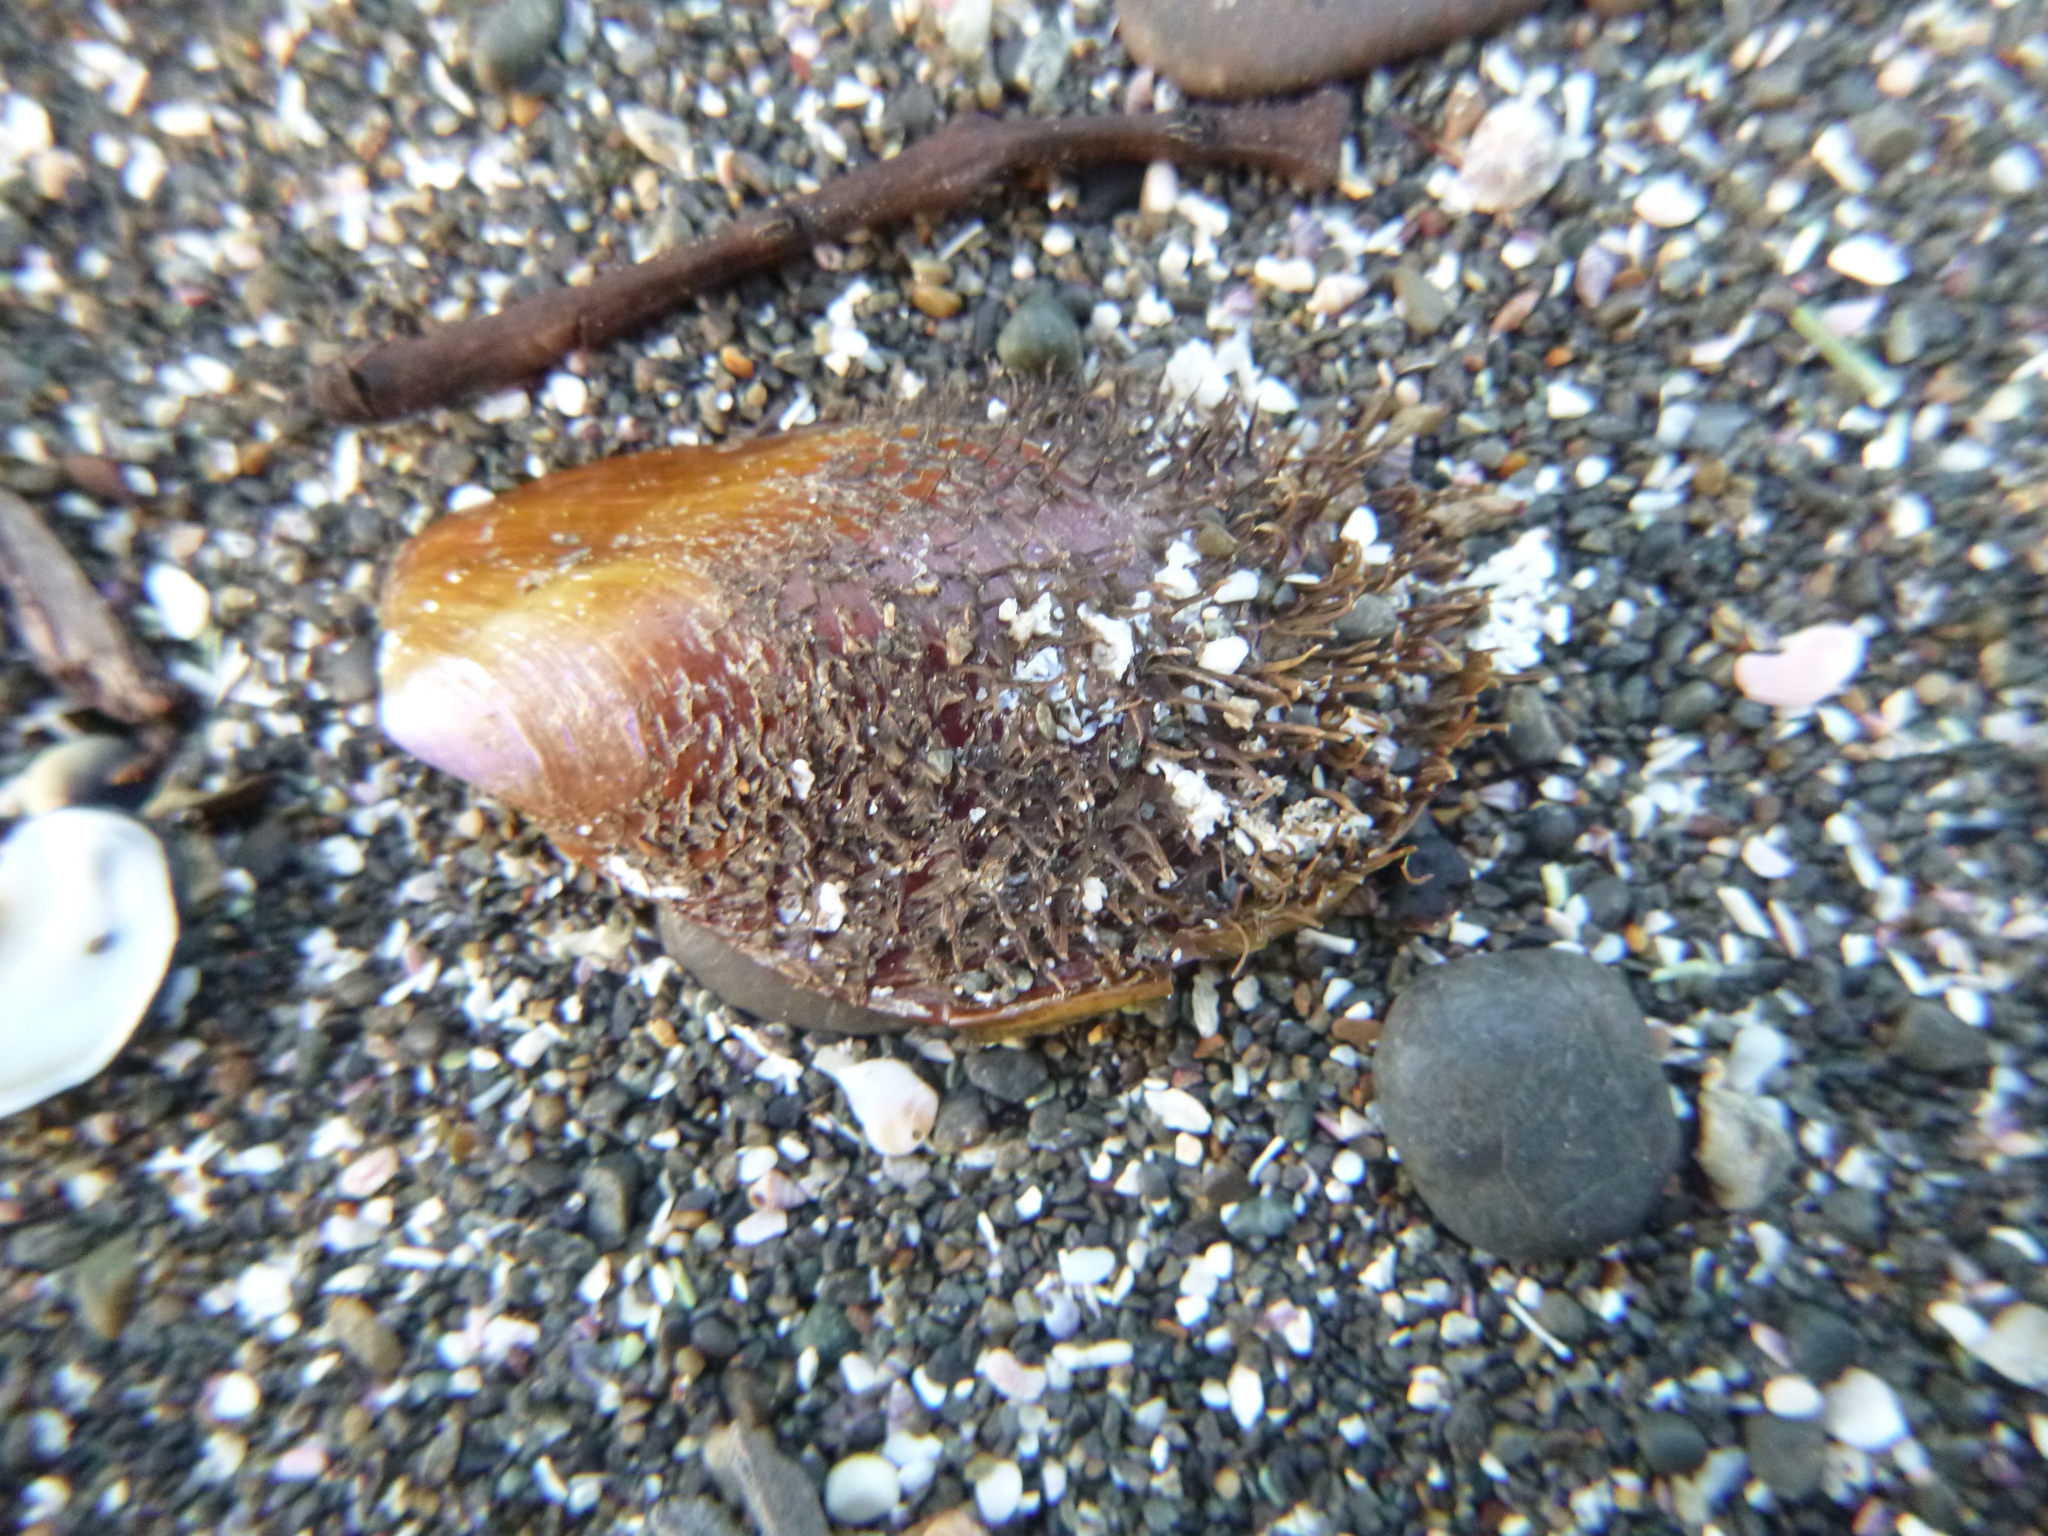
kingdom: Animalia
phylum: Mollusca
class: Bivalvia
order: Mytilida
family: Mytilidae
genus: Modiolus
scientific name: Modiolus areolatus
